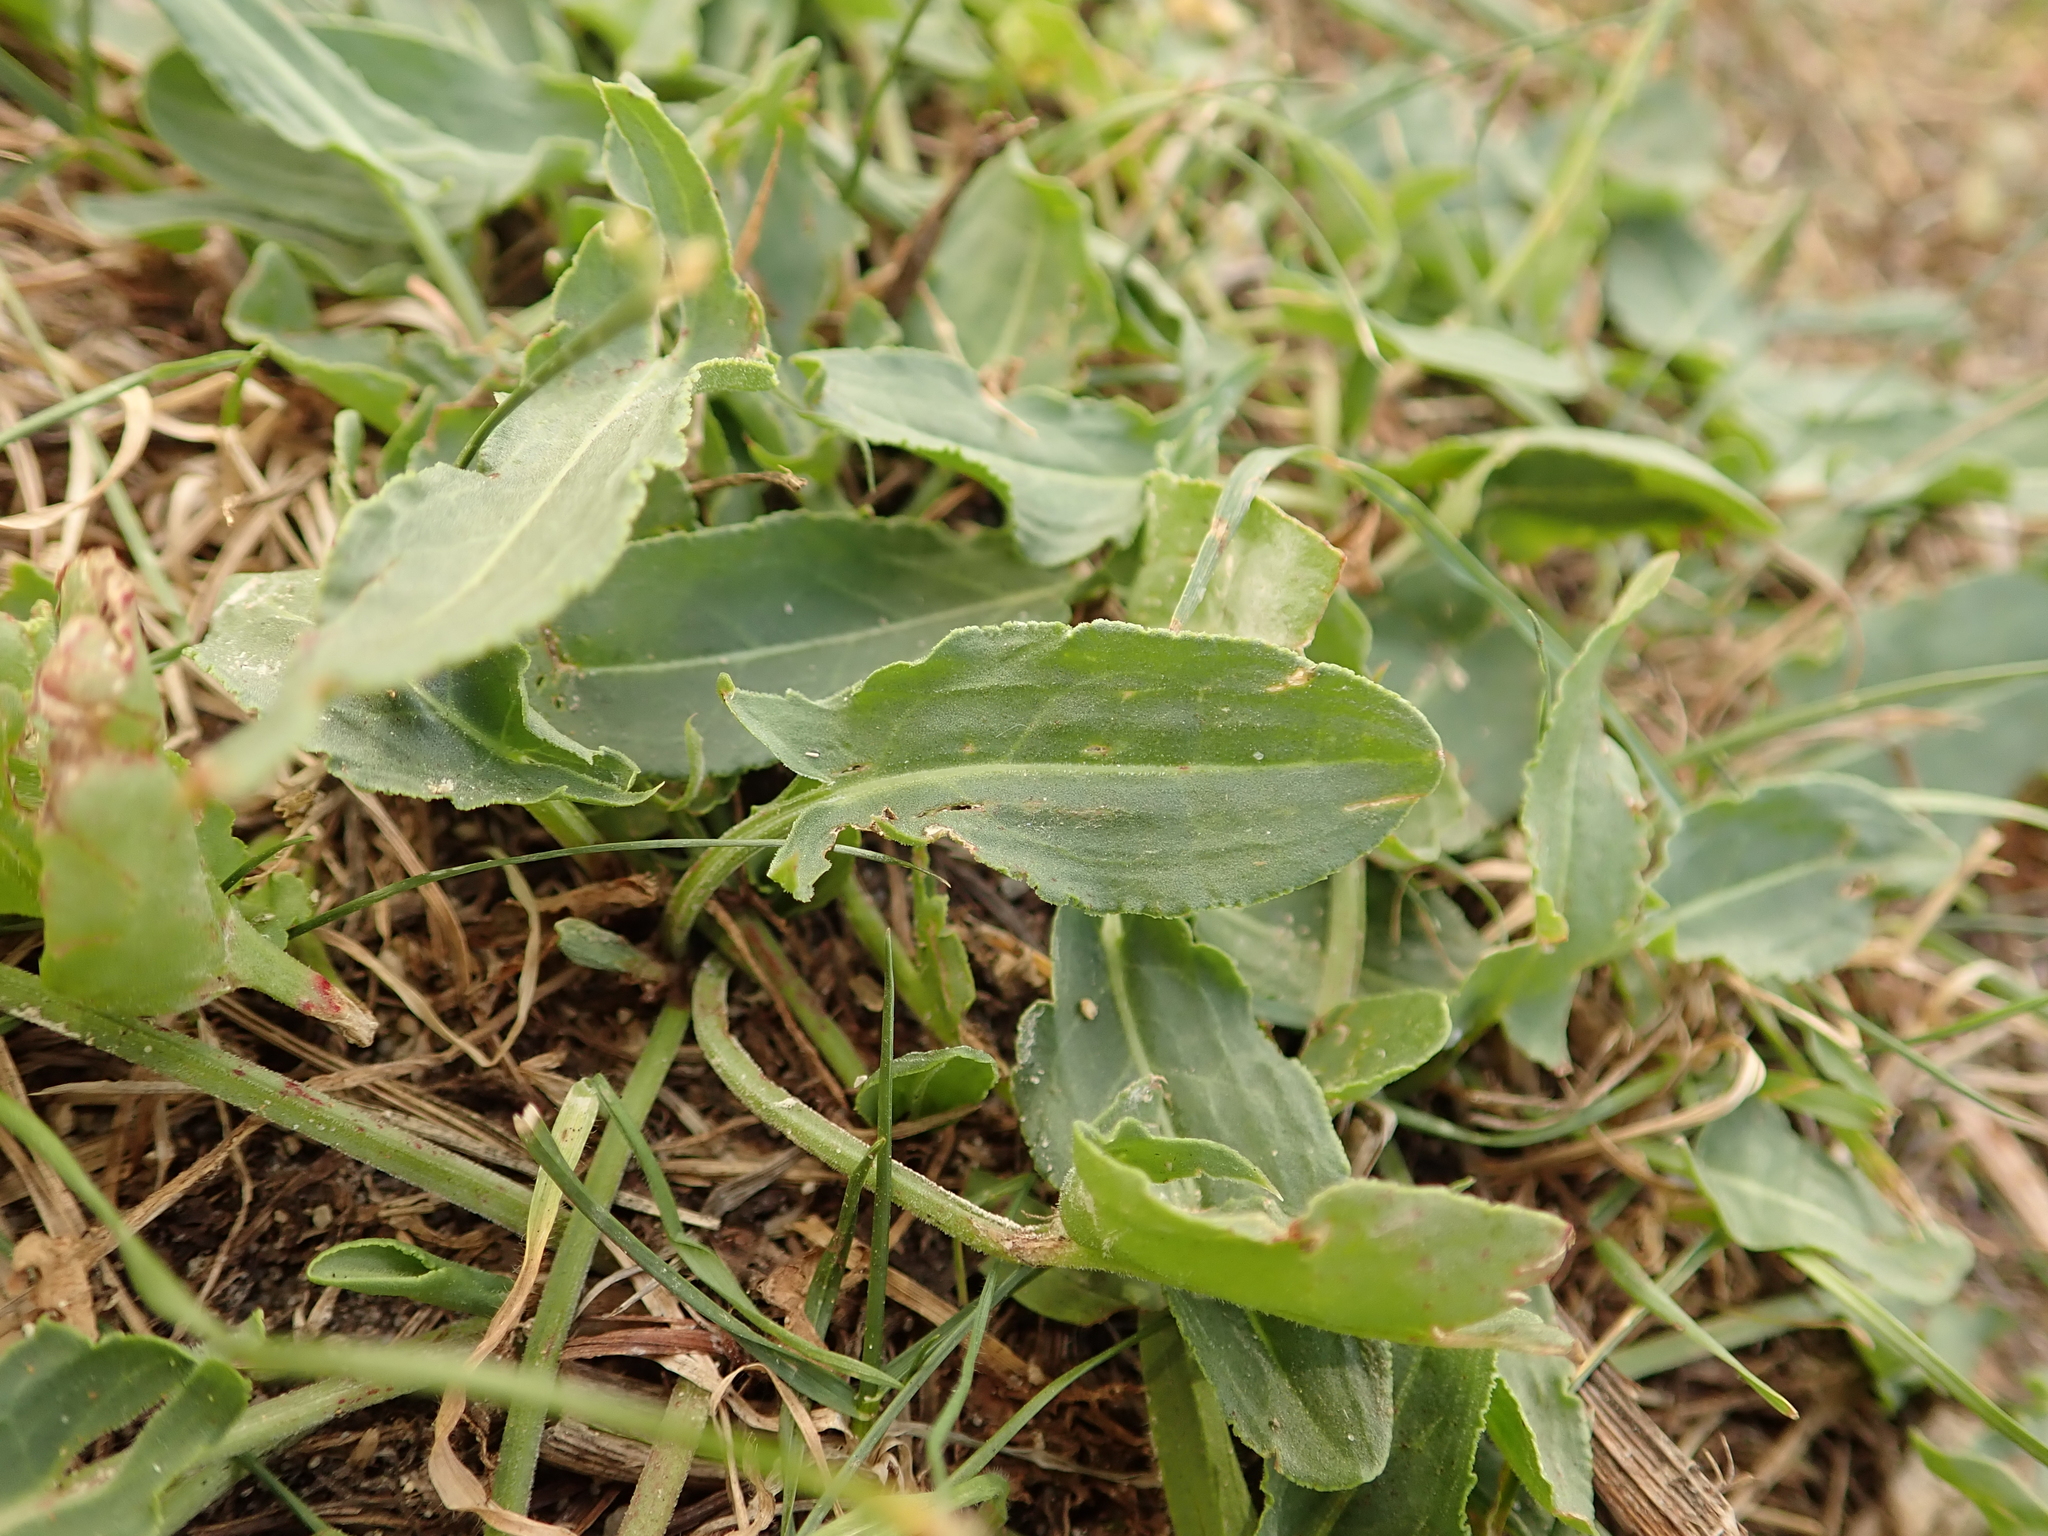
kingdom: Plantae
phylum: Tracheophyta
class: Magnoliopsida
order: Caryophyllales
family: Polygonaceae
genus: Rumex
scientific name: Rumex acetosa
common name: Garden sorrel
